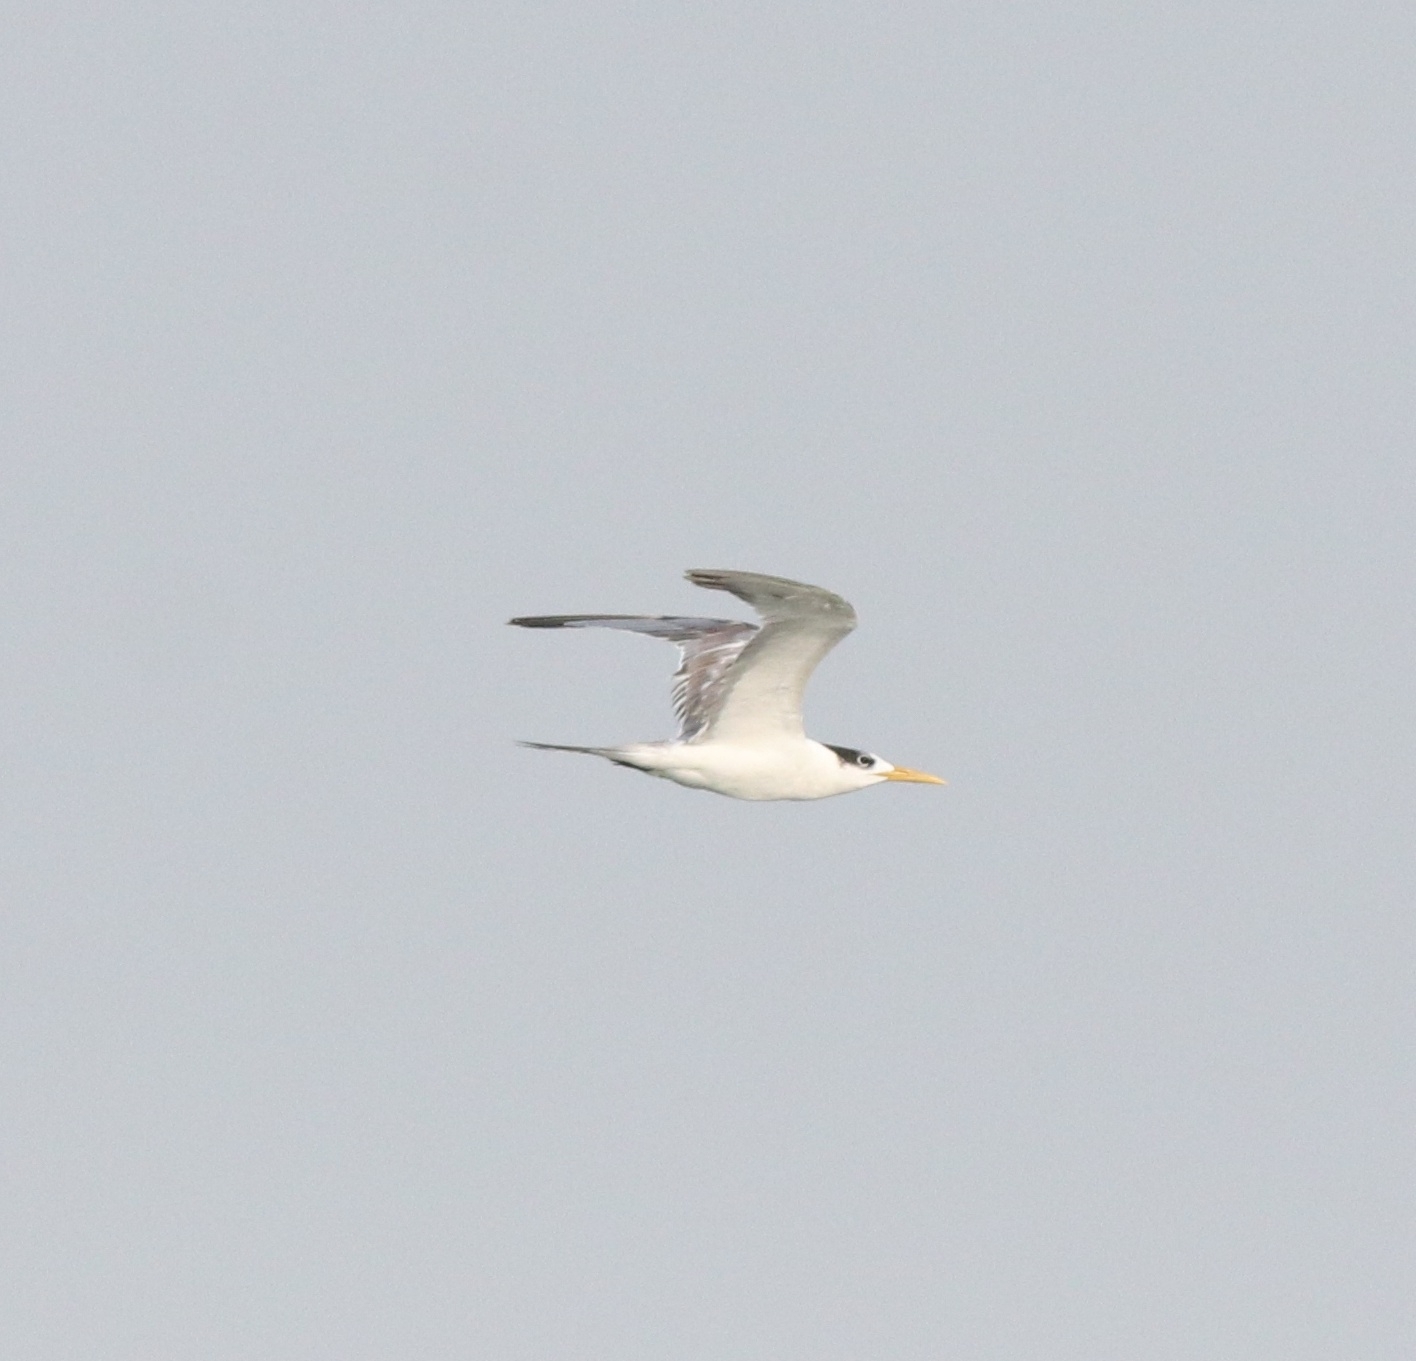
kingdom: Animalia
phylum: Chordata
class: Aves
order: Charadriiformes
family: Laridae
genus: Thalasseus
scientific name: Thalasseus bengalensis
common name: Lesser crested tern
